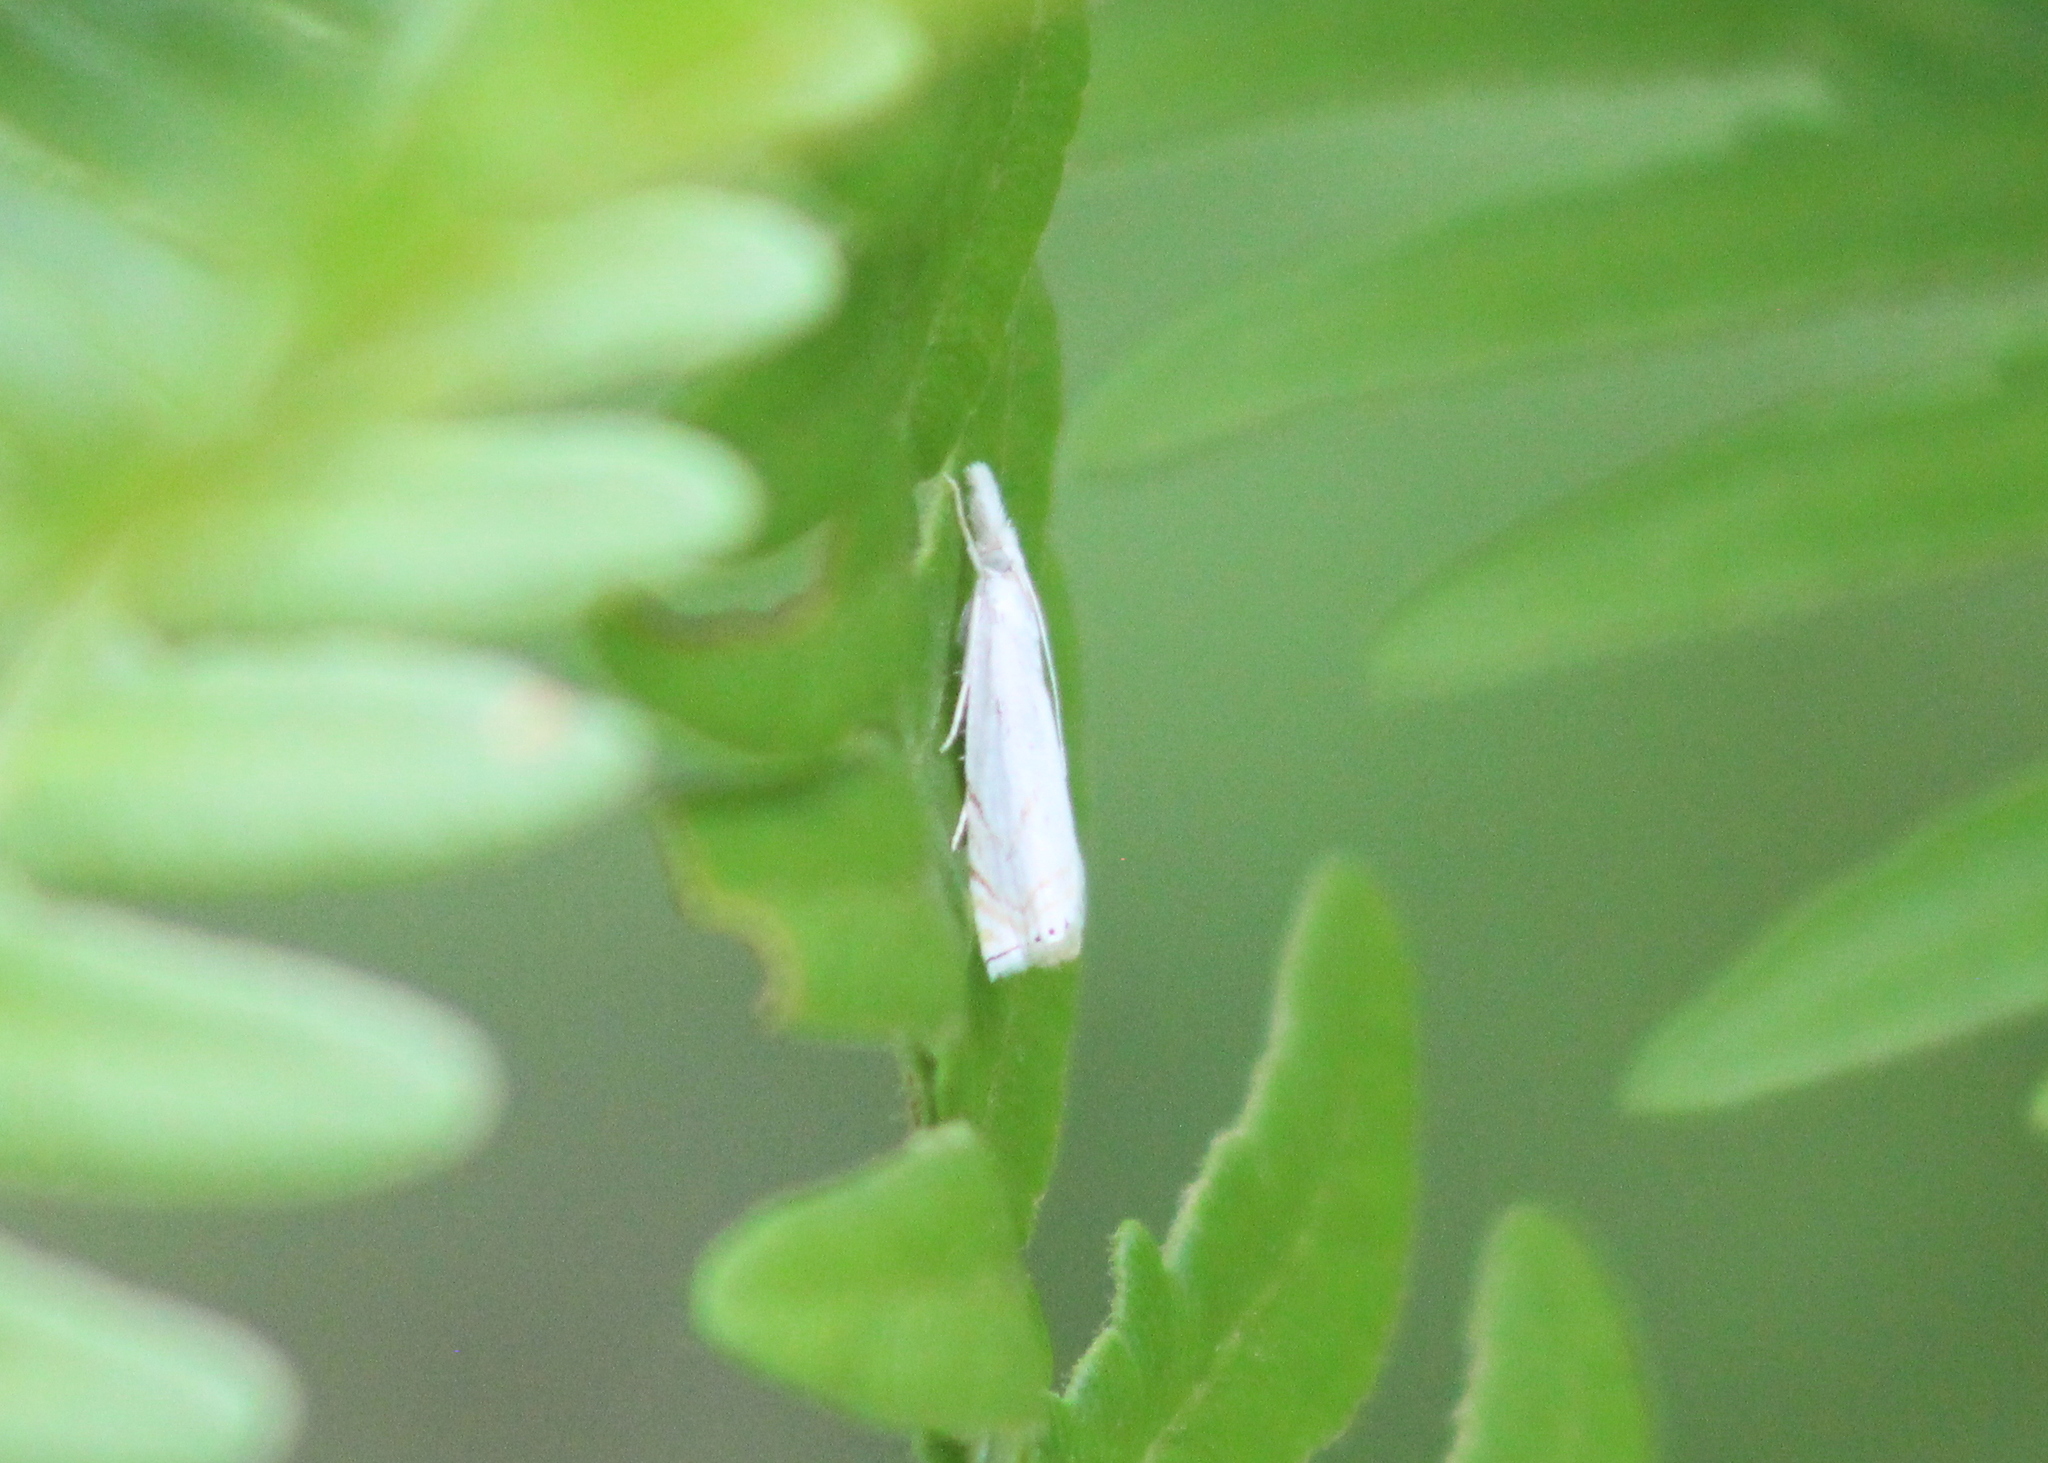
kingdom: Animalia
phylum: Arthropoda
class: Insecta
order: Lepidoptera
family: Crambidae
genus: Crambus
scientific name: Crambus albellus
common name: Small white grass-veneer
